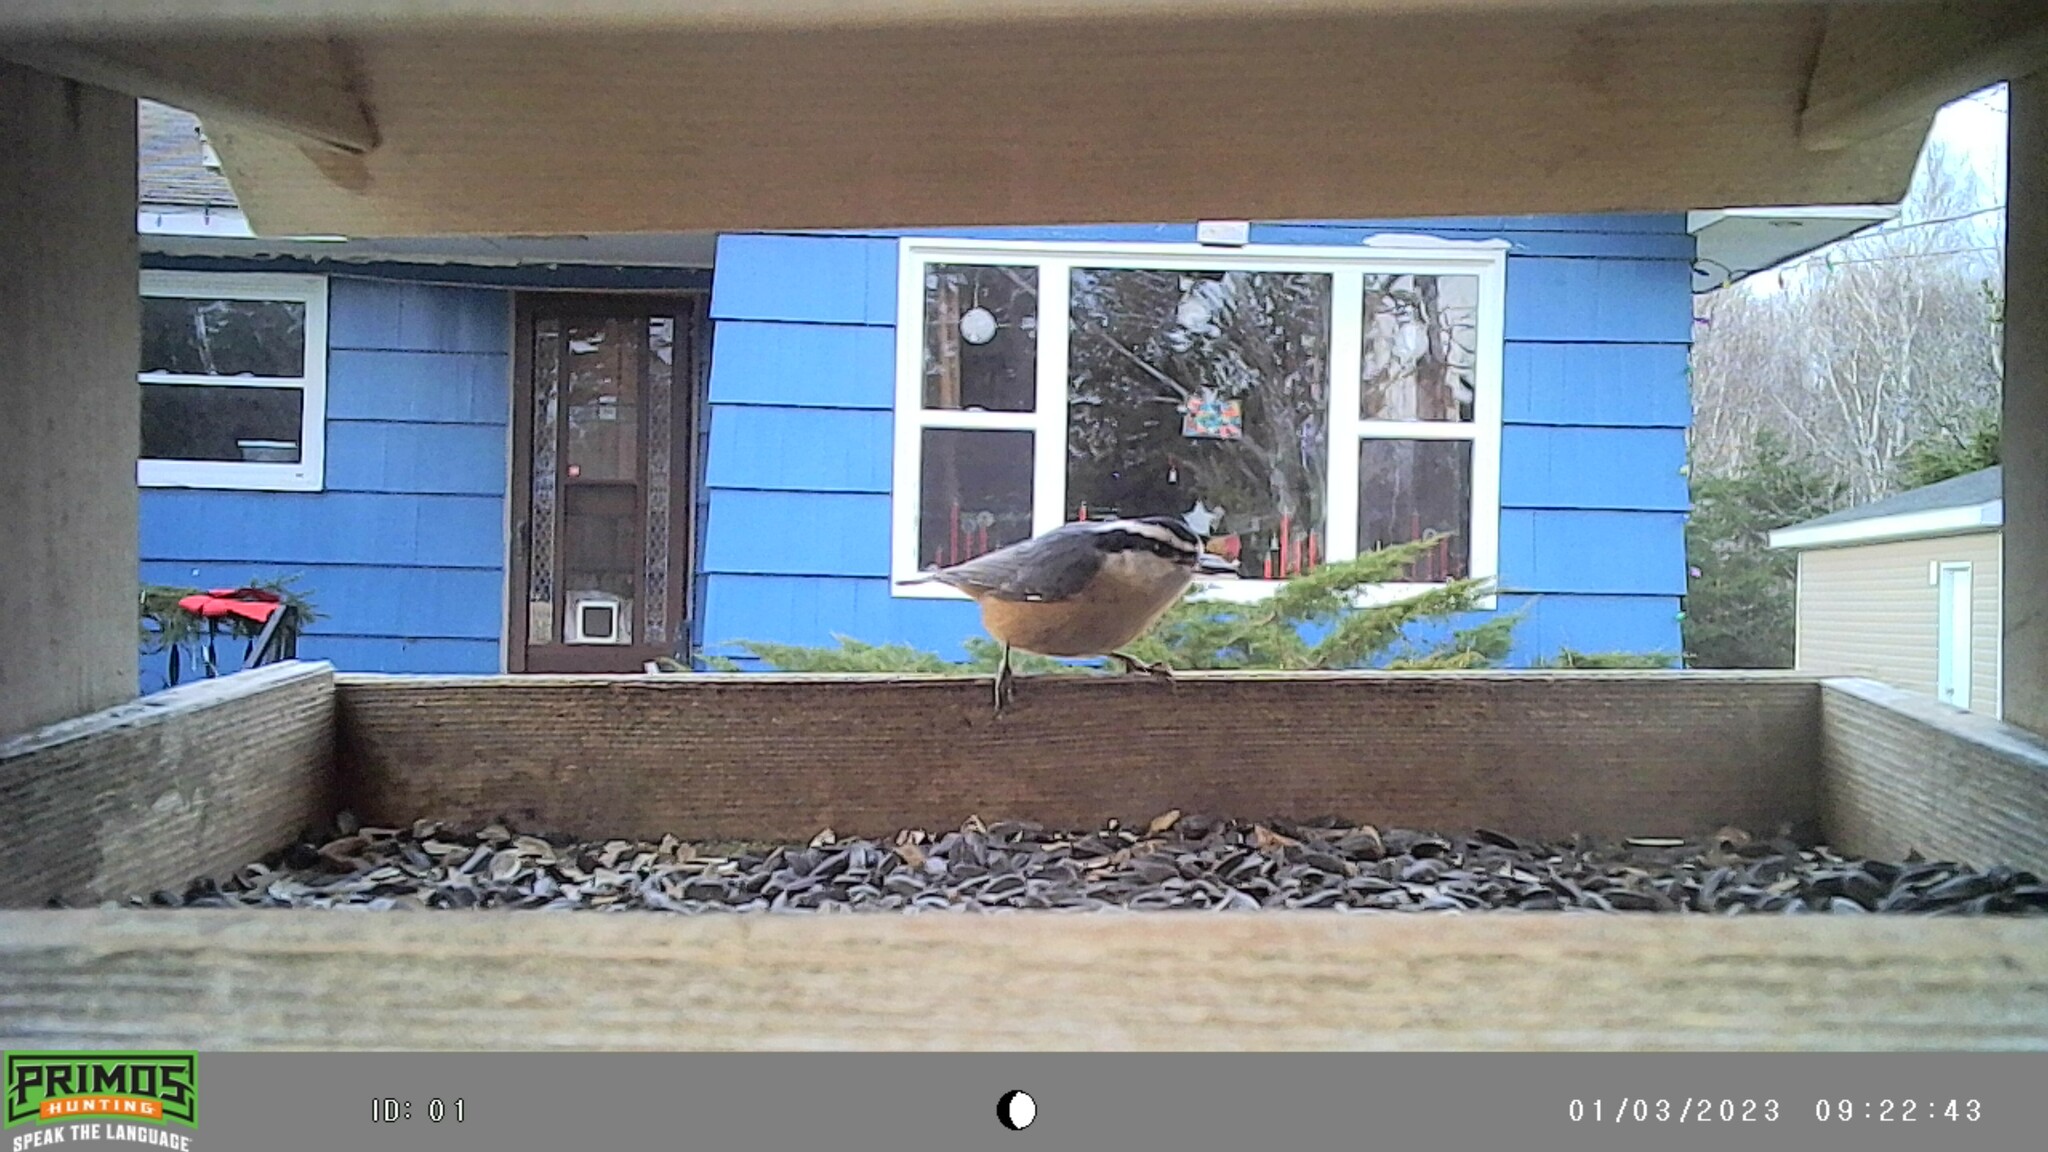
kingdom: Animalia
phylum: Chordata
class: Aves
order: Passeriformes
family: Sittidae
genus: Sitta
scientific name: Sitta canadensis
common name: Red-breasted nuthatch
